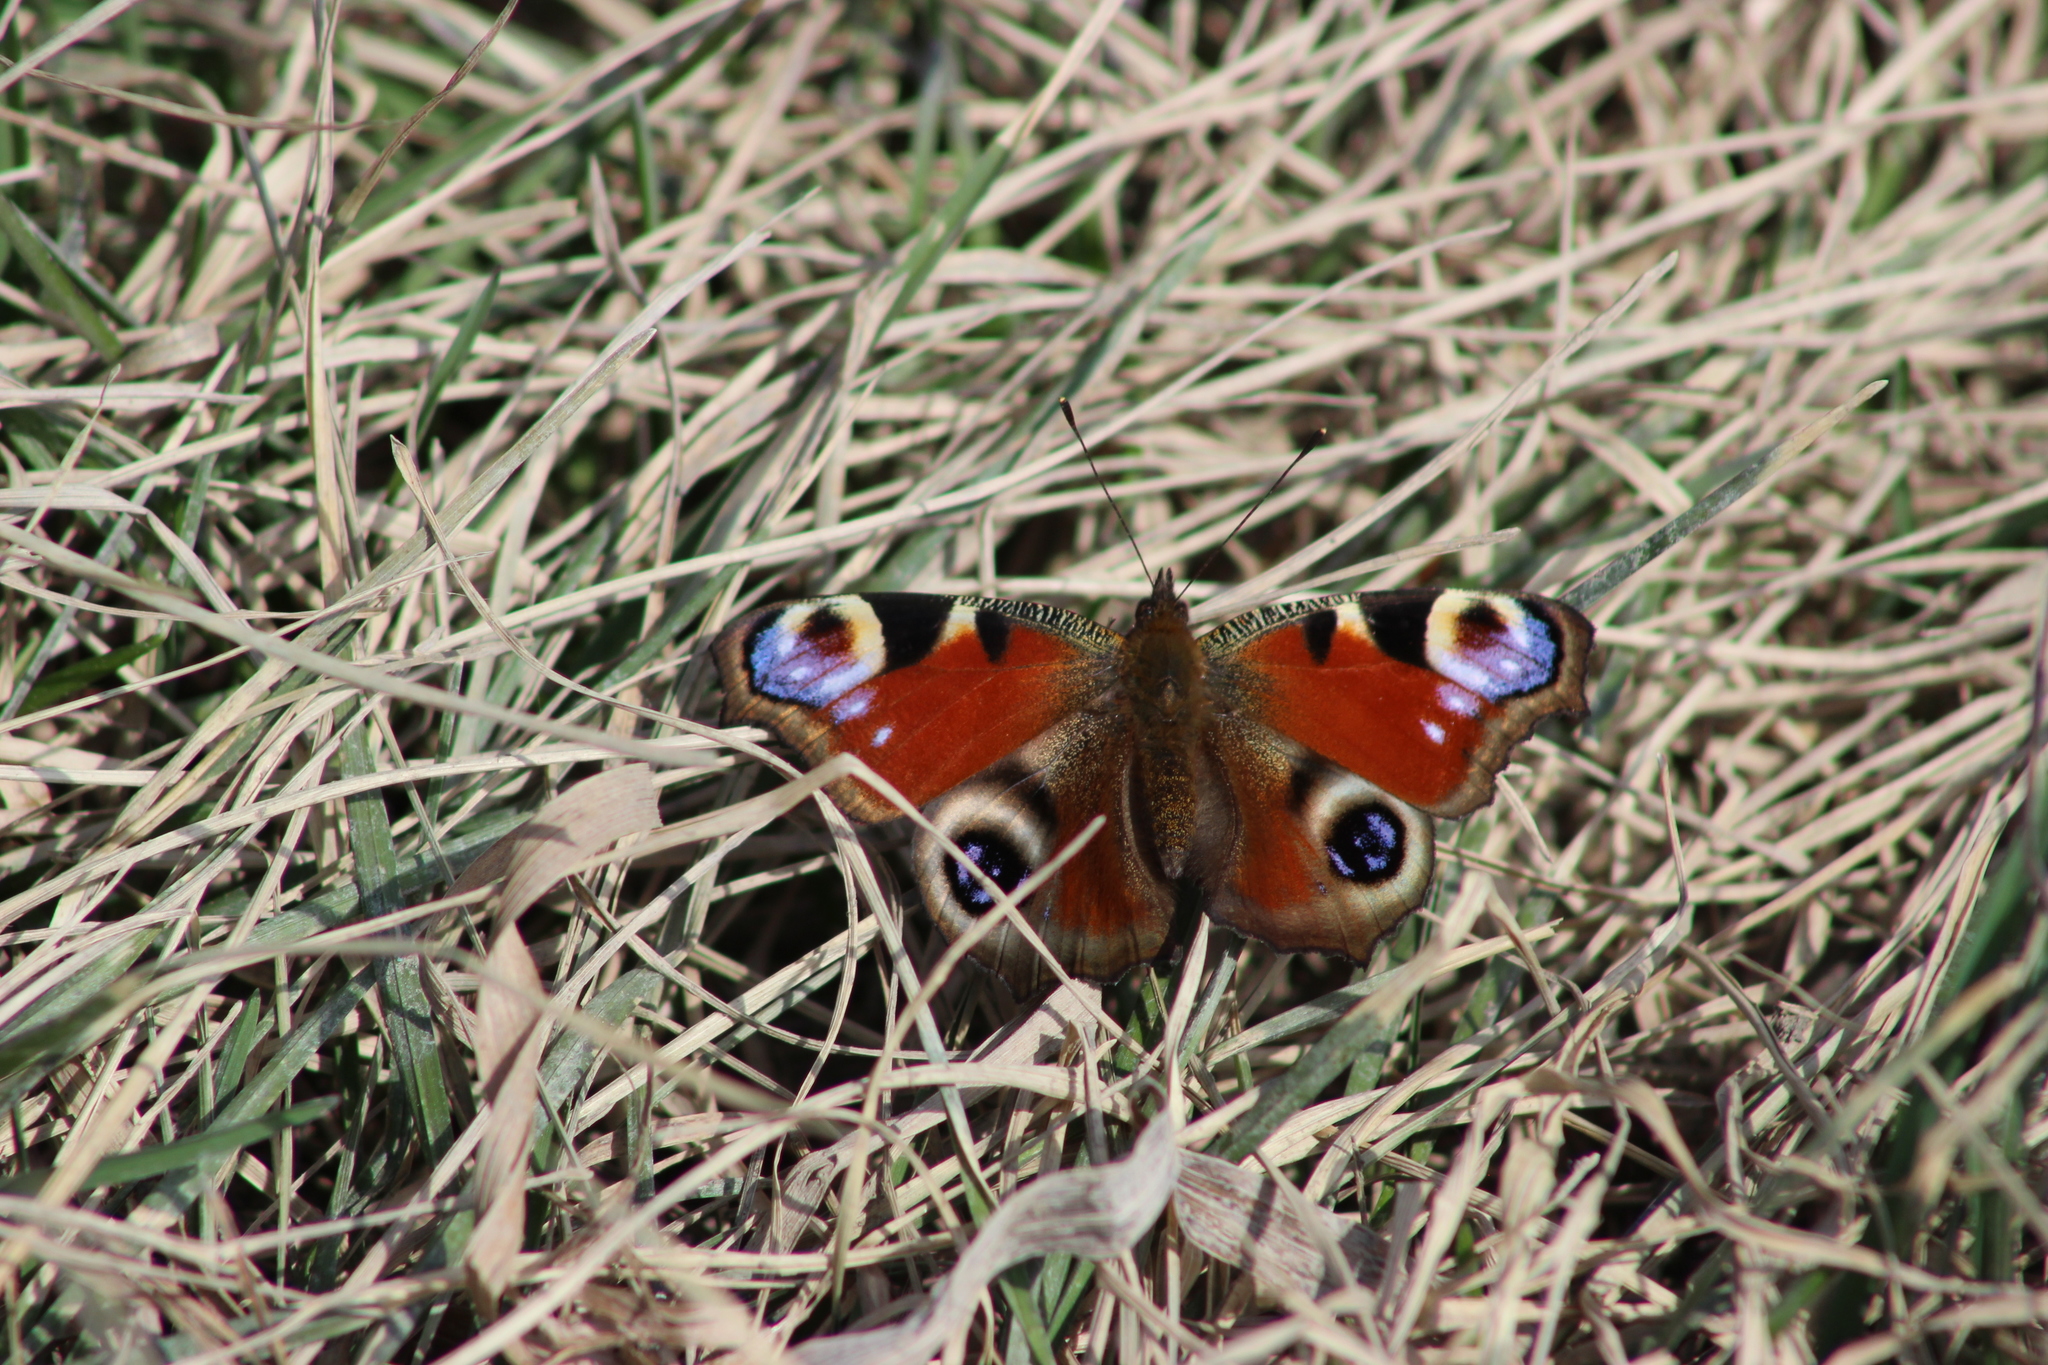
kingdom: Animalia
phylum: Arthropoda
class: Insecta
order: Lepidoptera
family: Nymphalidae
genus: Aglais
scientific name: Aglais io
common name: Peacock
